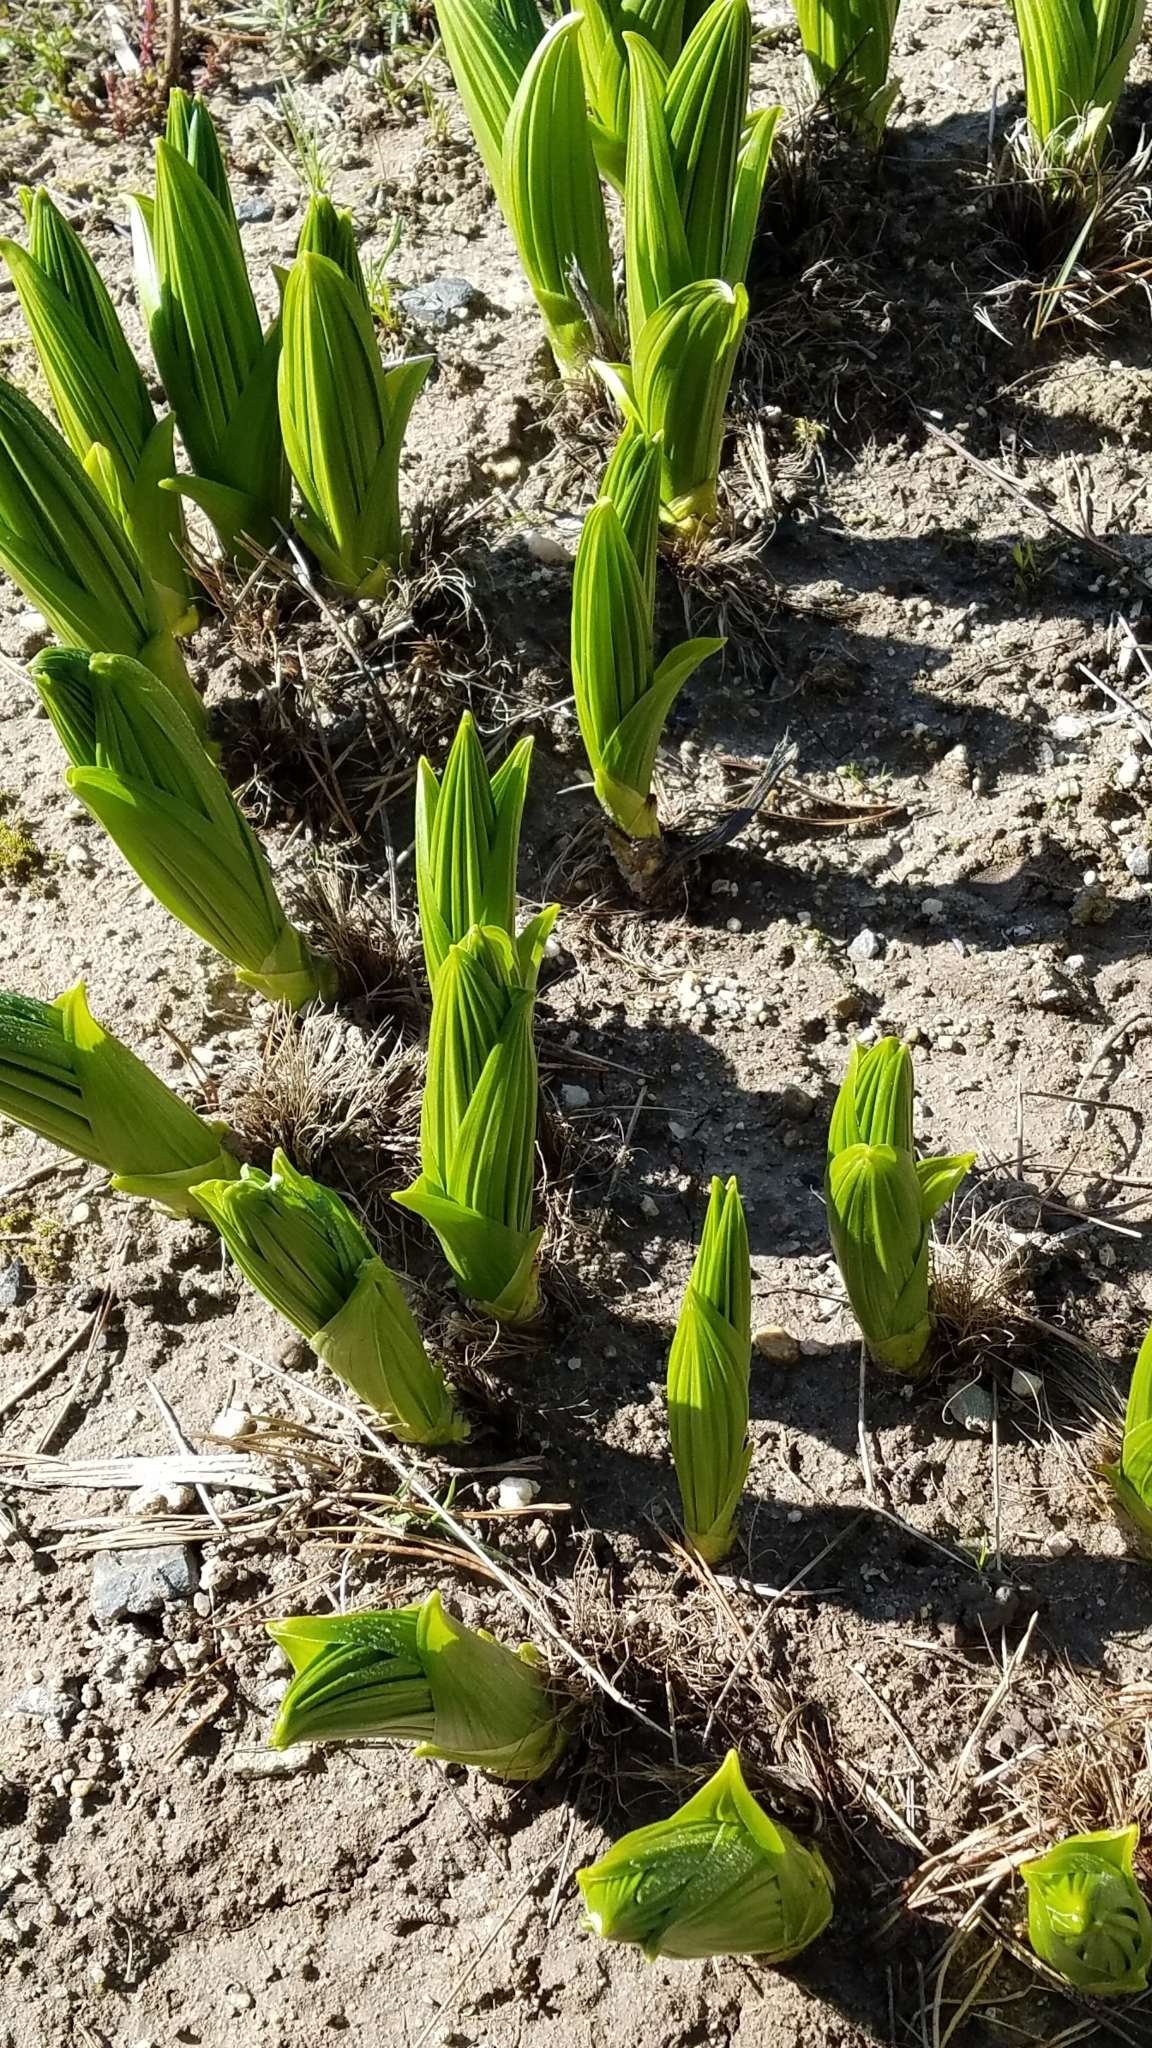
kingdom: Plantae
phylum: Tracheophyta
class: Liliopsida
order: Liliales
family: Melanthiaceae
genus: Veratrum
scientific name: Veratrum californicum
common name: California veratrum
